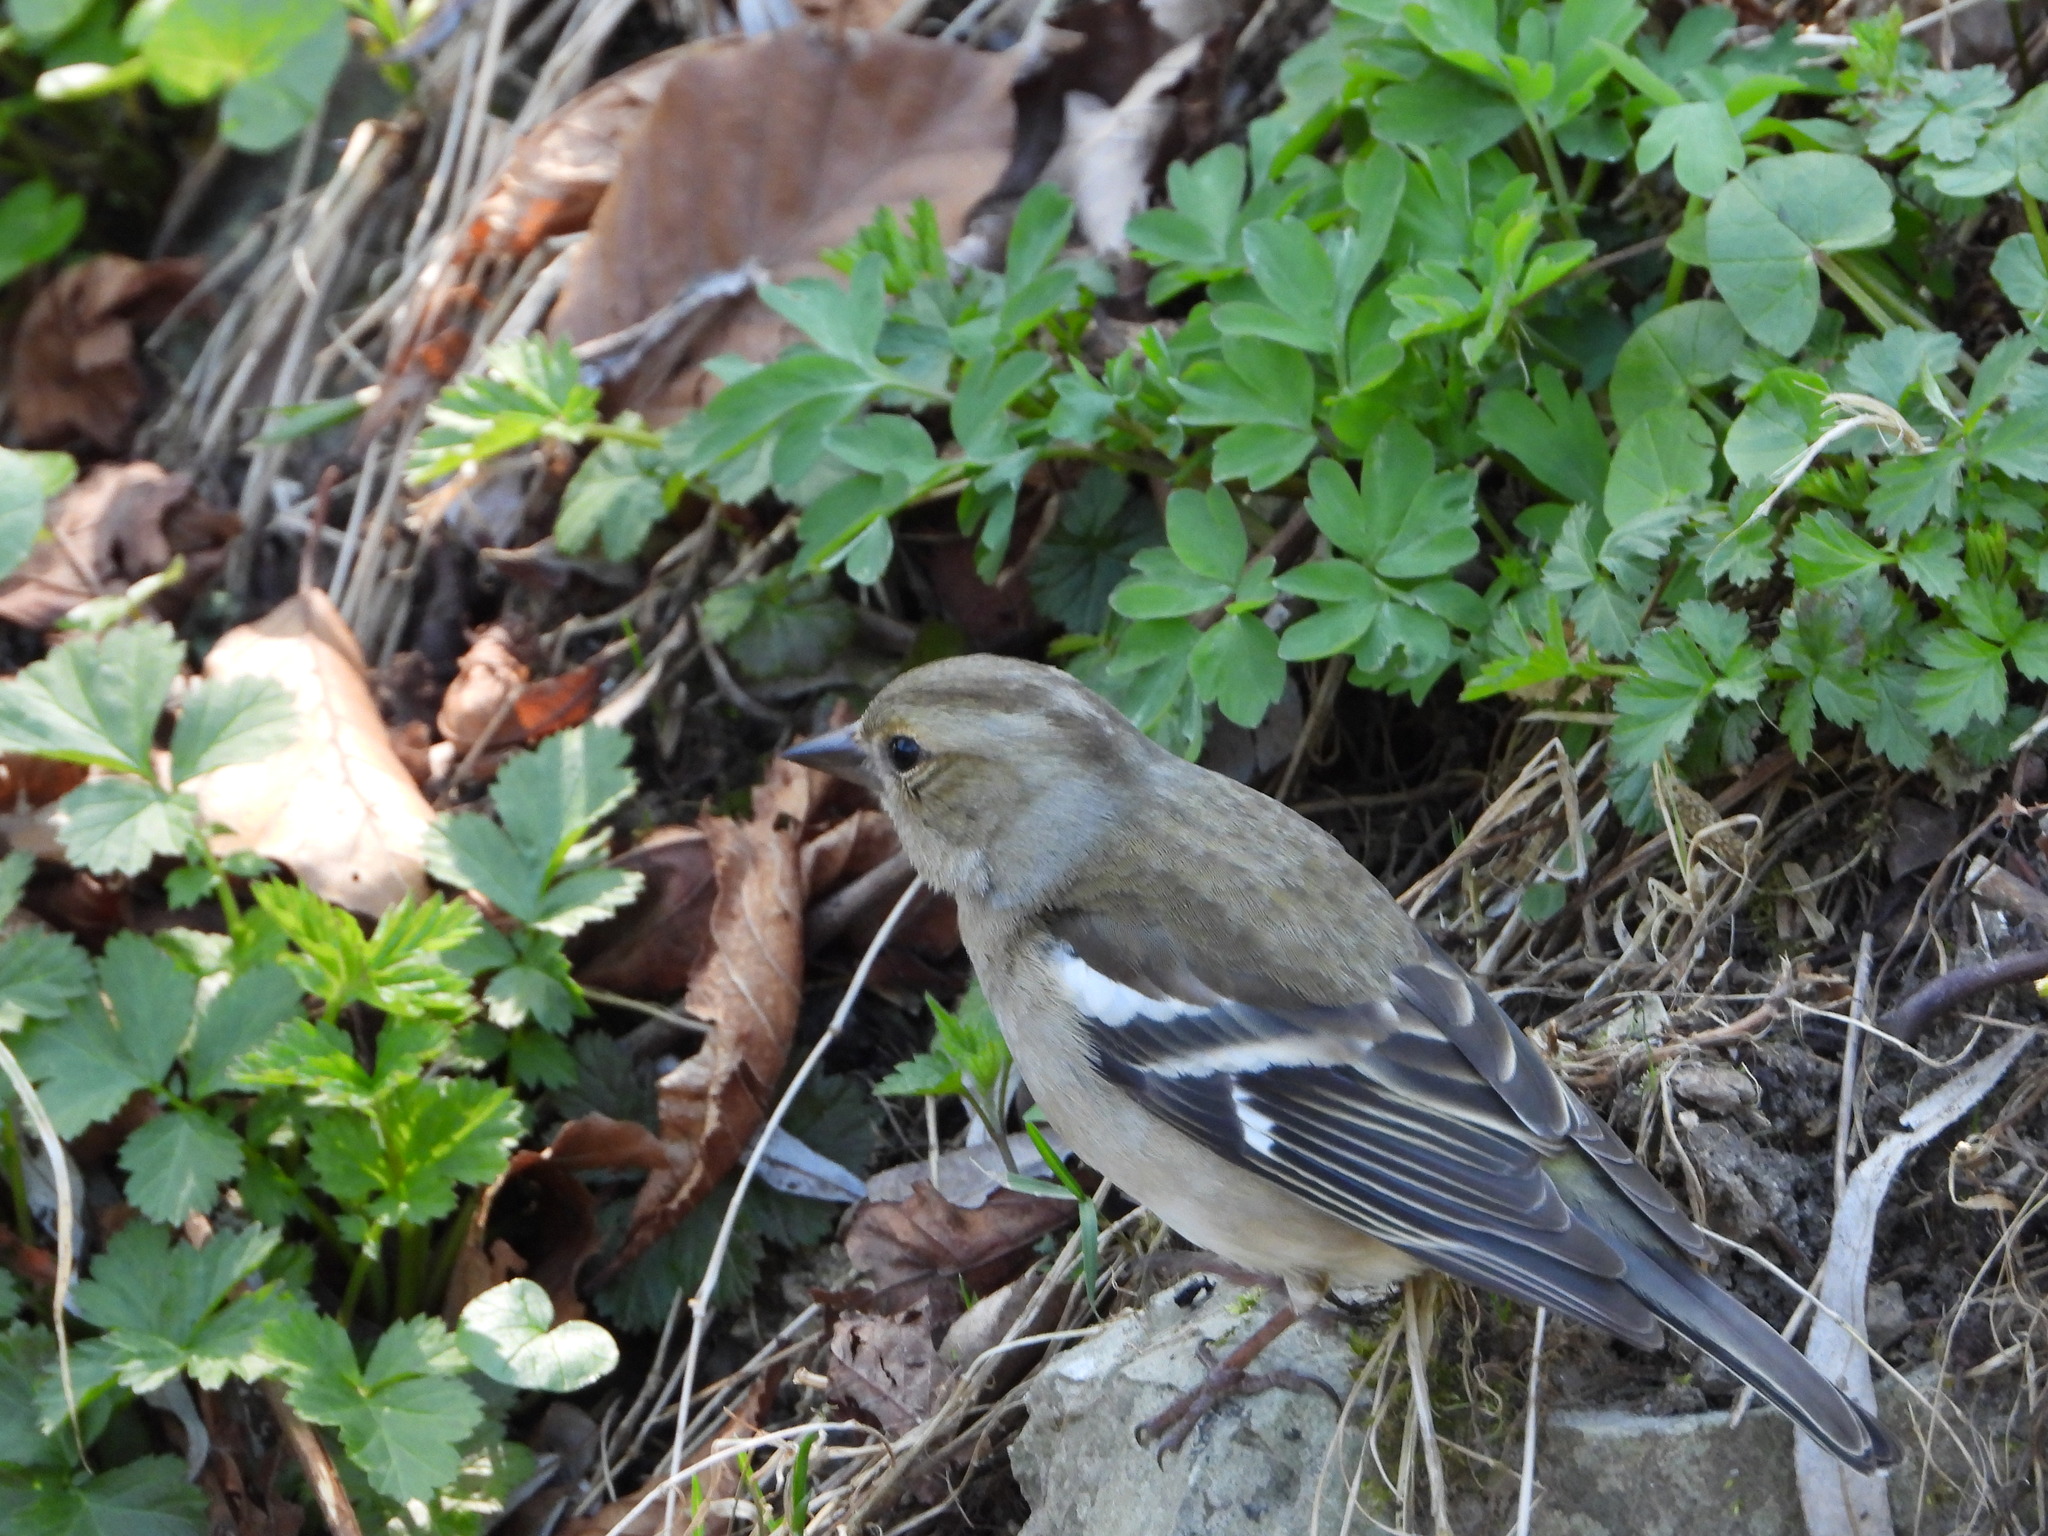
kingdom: Animalia
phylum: Chordata
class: Aves
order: Passeriformes
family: Fringillidae
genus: Fringilla
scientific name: Fringilla coelebs
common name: Common chaffinch
